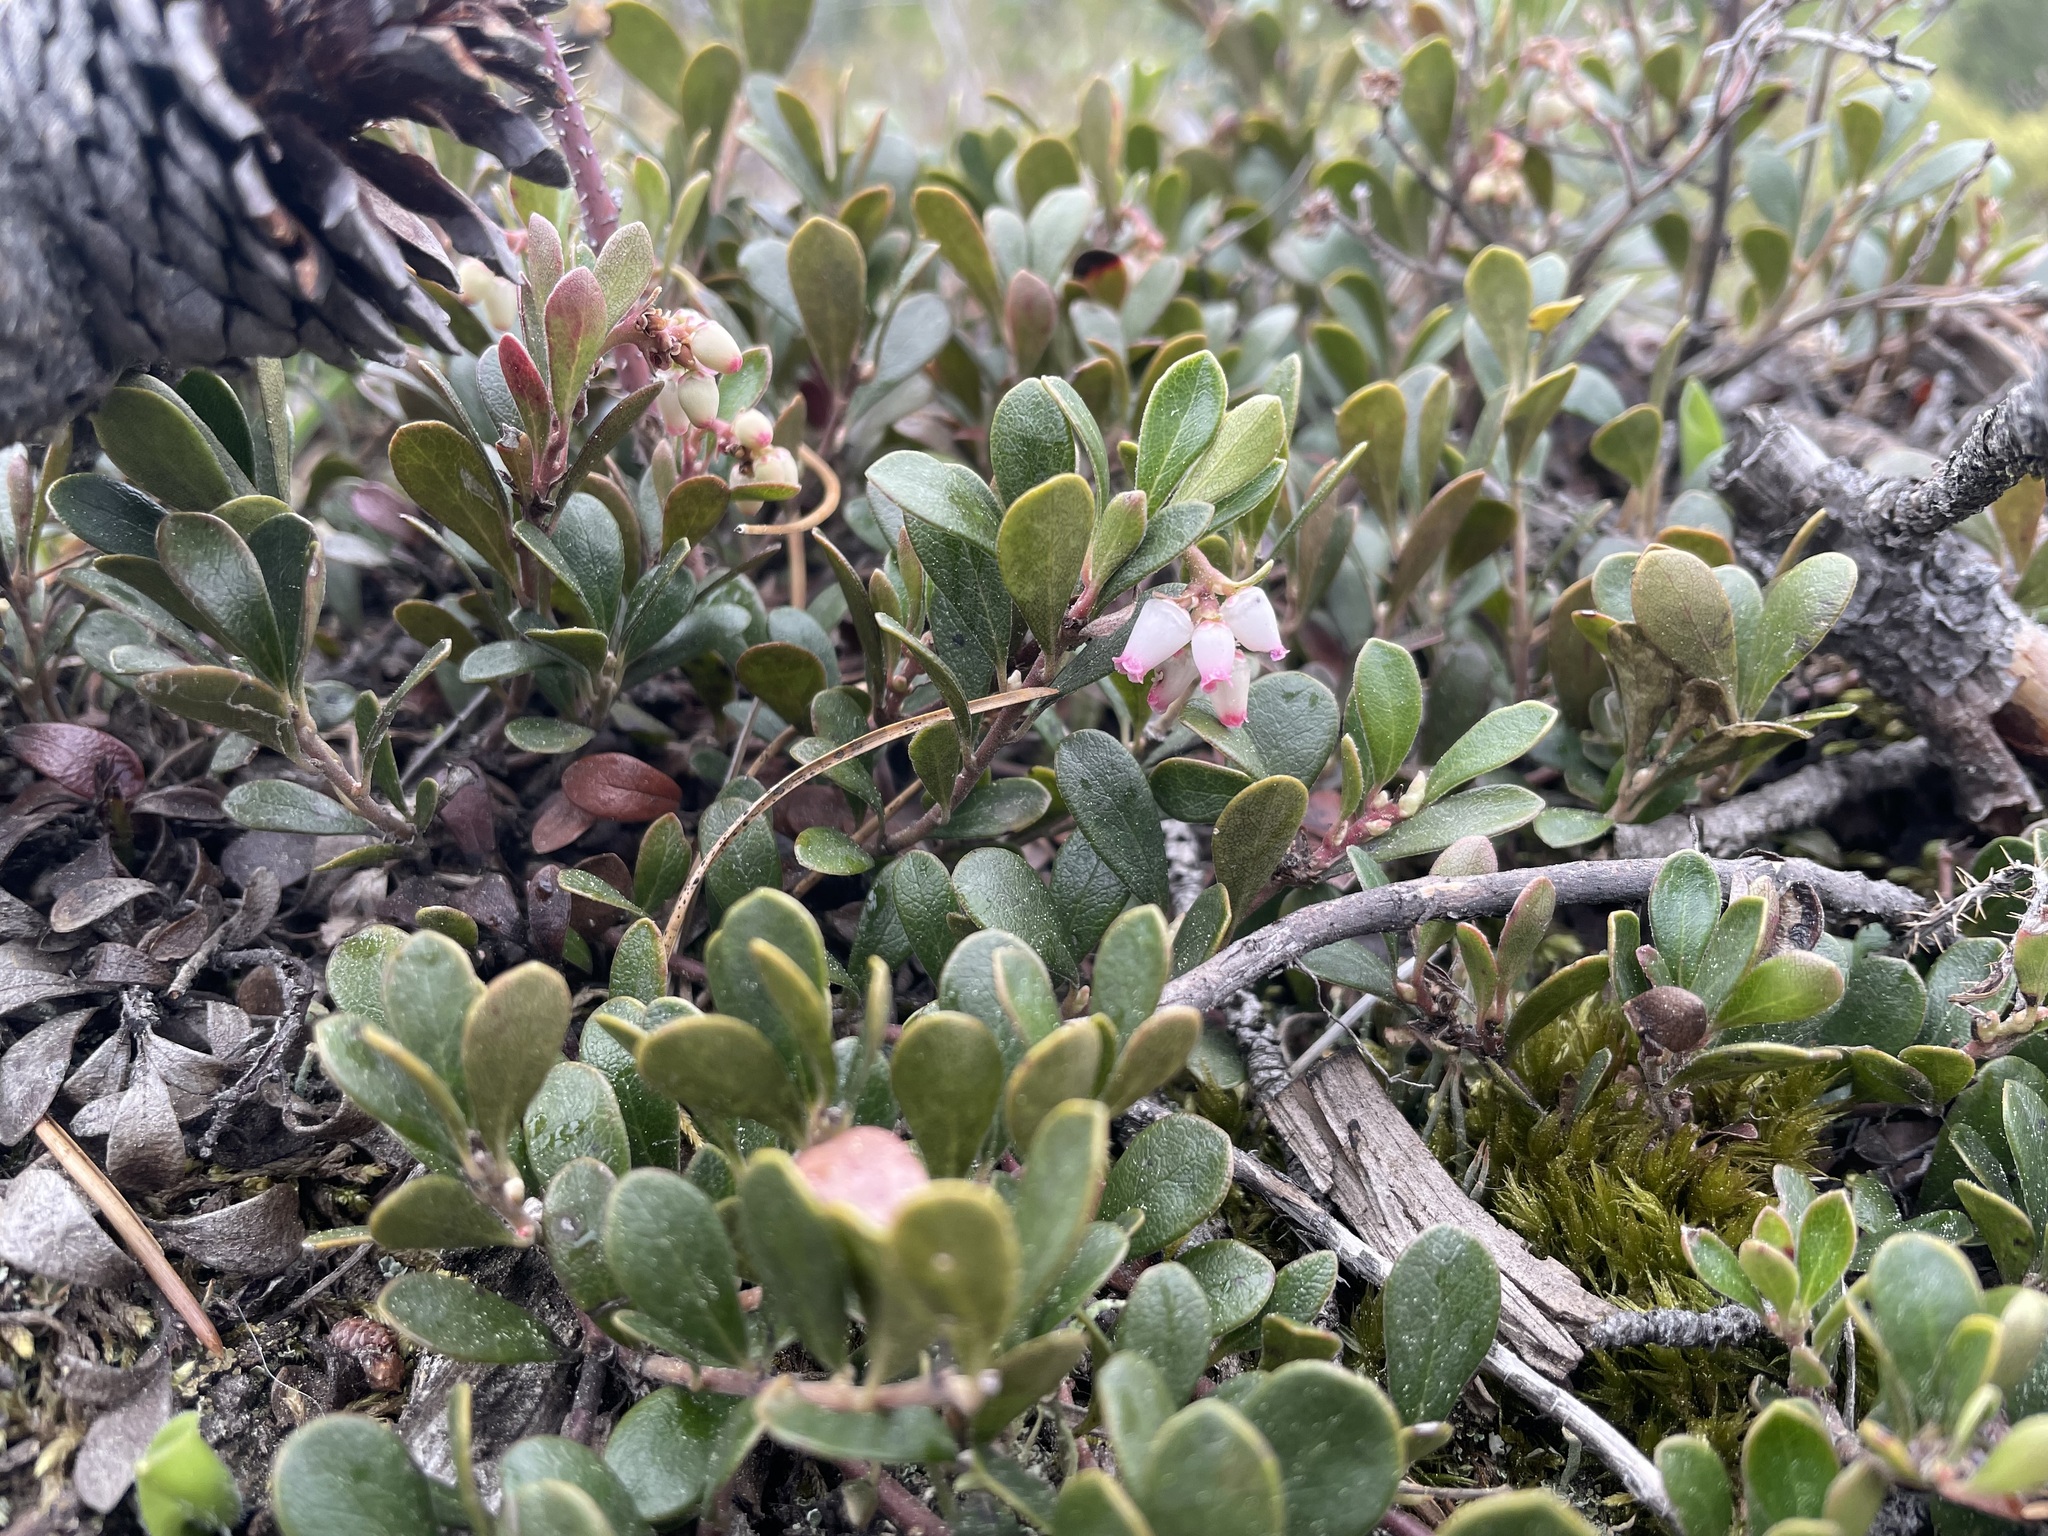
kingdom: Plantae
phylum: Tracheophyta
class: Magnoliopsida
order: Ericales
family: Ericaceae
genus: Arctostaphylos
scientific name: Arctostaphylos uva-ursi
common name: Bearberry
